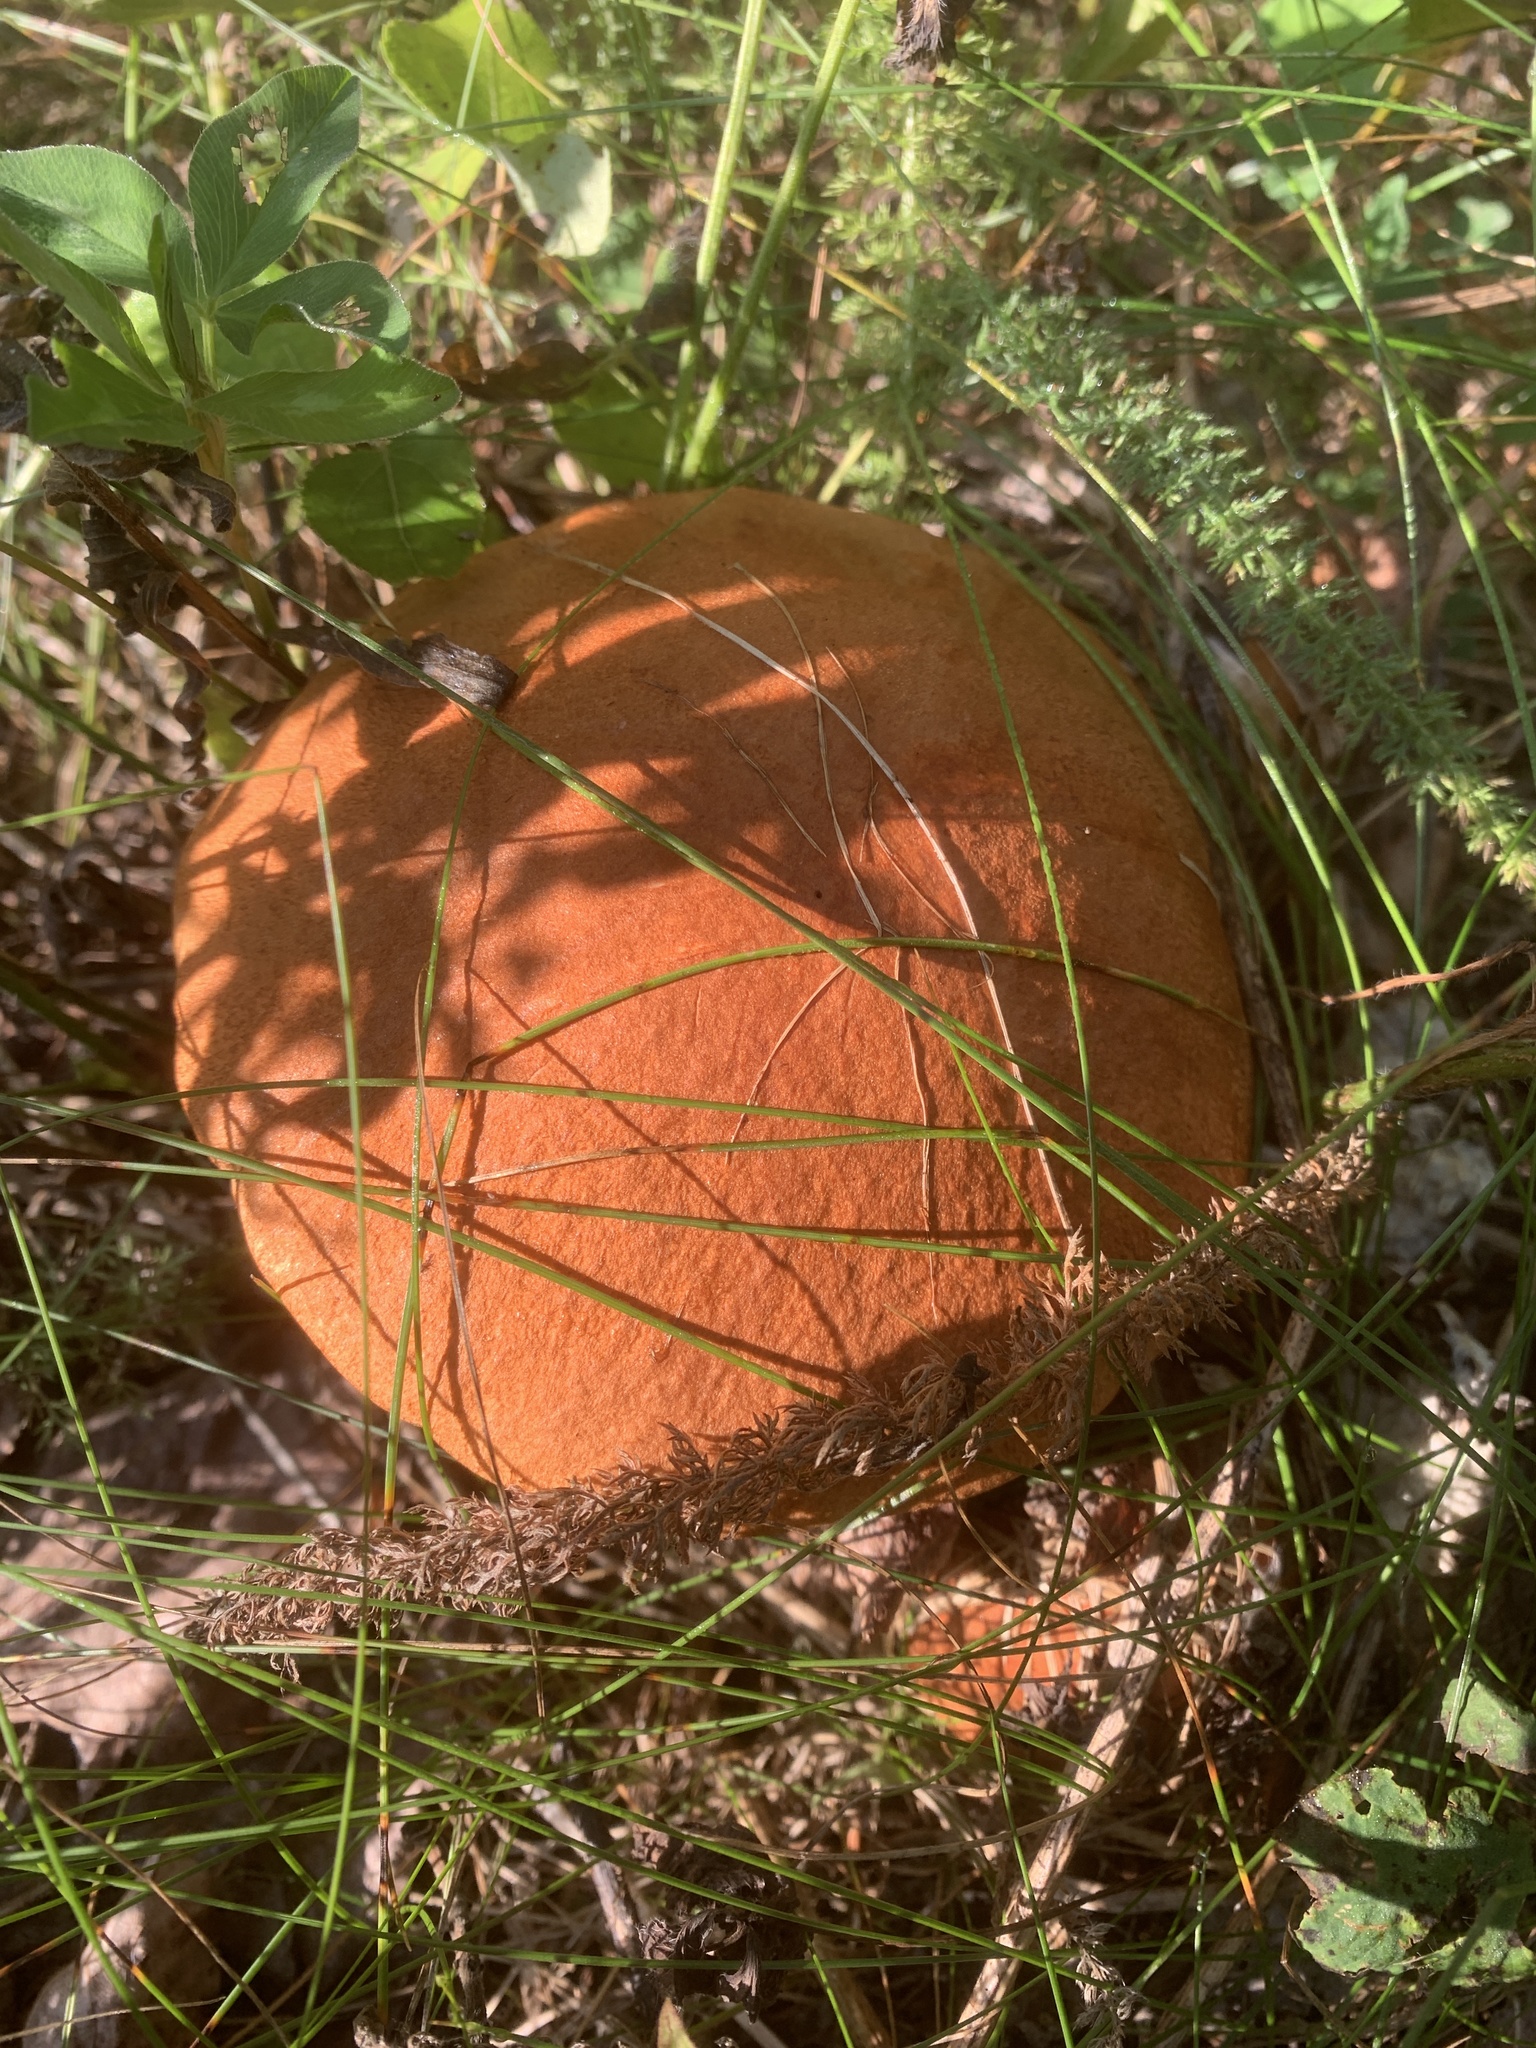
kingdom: Fungi
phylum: Basidiomycota
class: Agaricomycetes
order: Boletales
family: Boletaceae
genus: Leccinum
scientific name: Leccinum insigne
